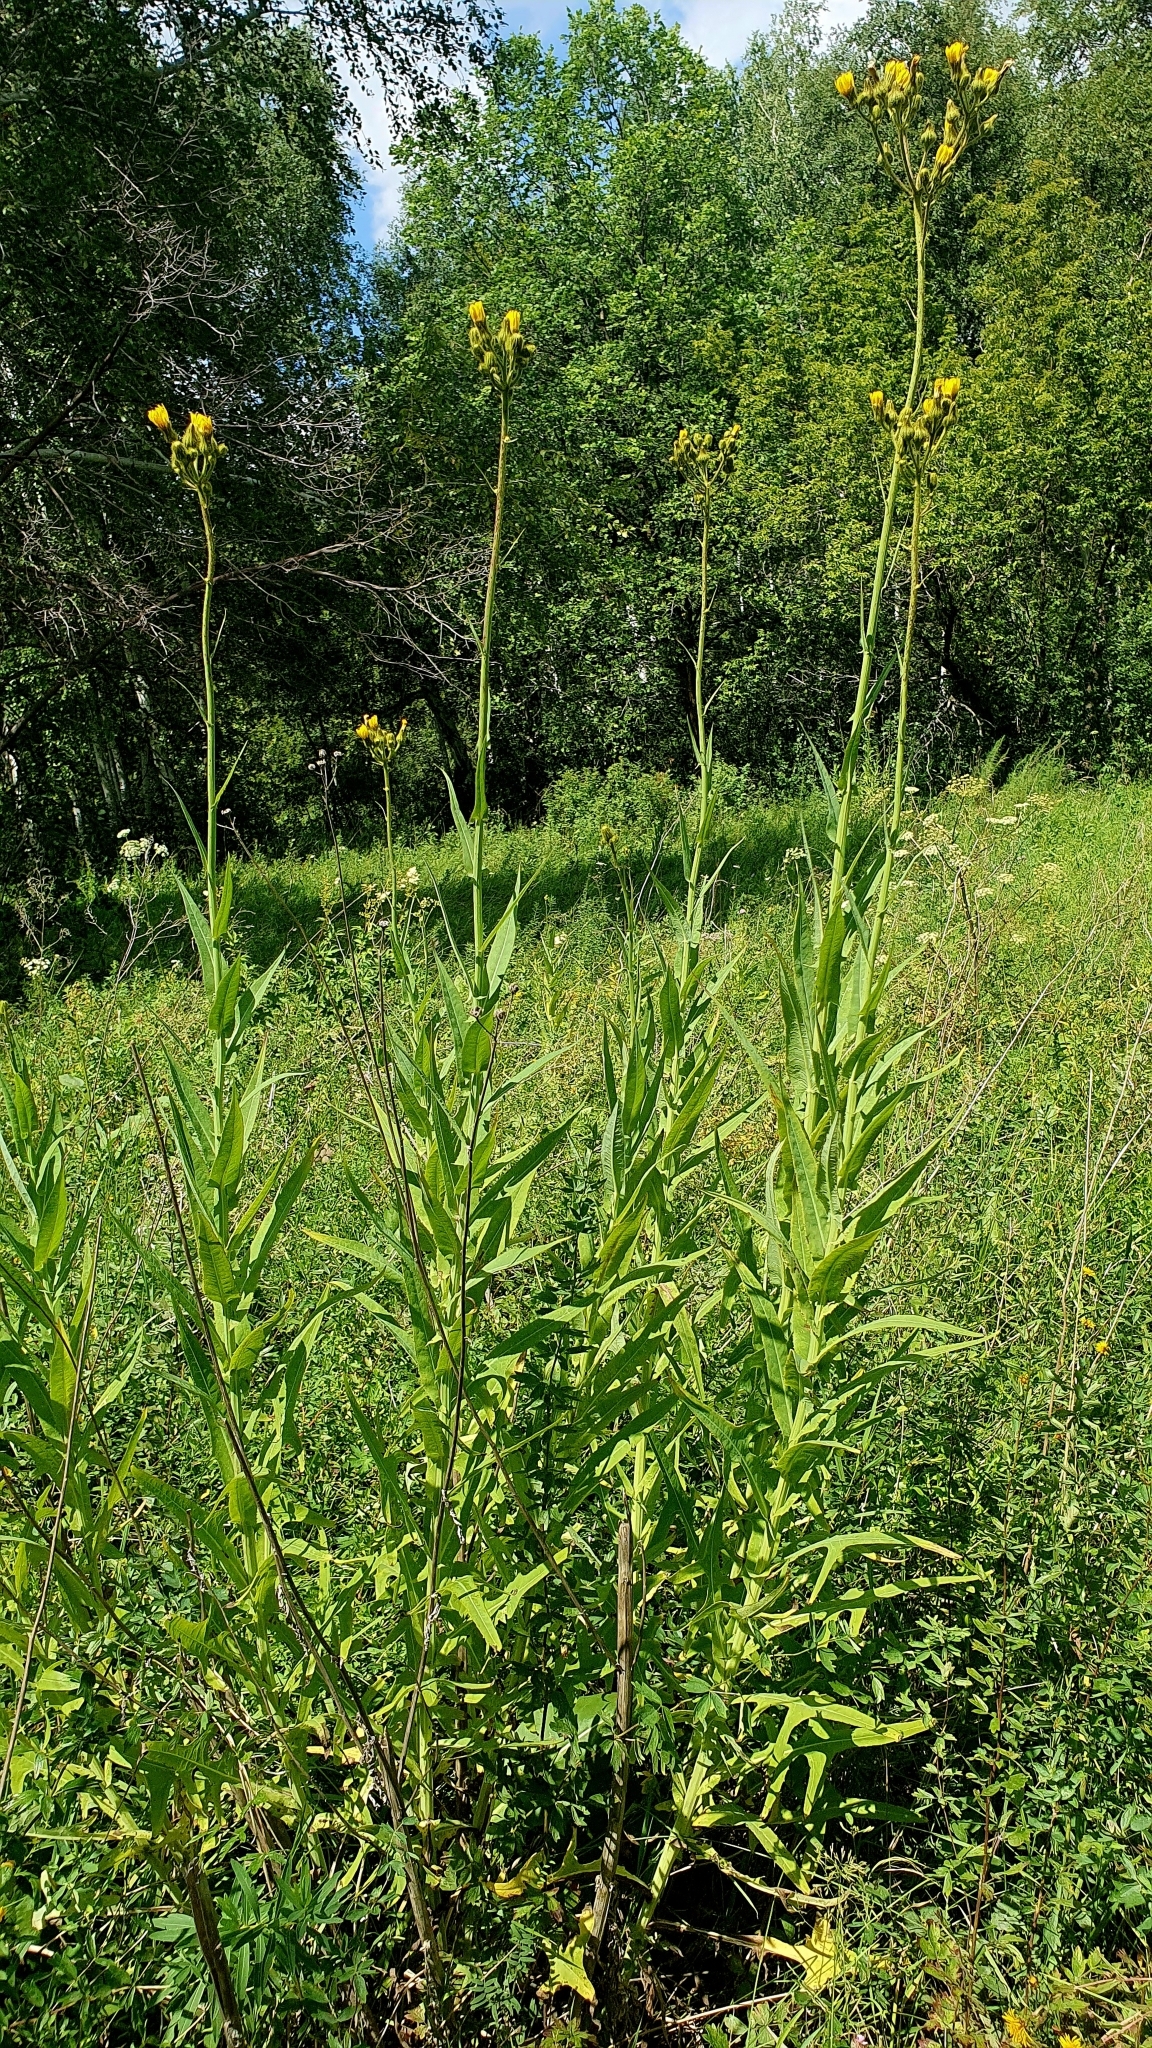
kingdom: Plantae
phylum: Tracheophyta
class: Magnoliopsida
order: Asterales
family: Asteraceae
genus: Sonchus
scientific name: Sonchus palustris
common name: Marsh sow-thistle
